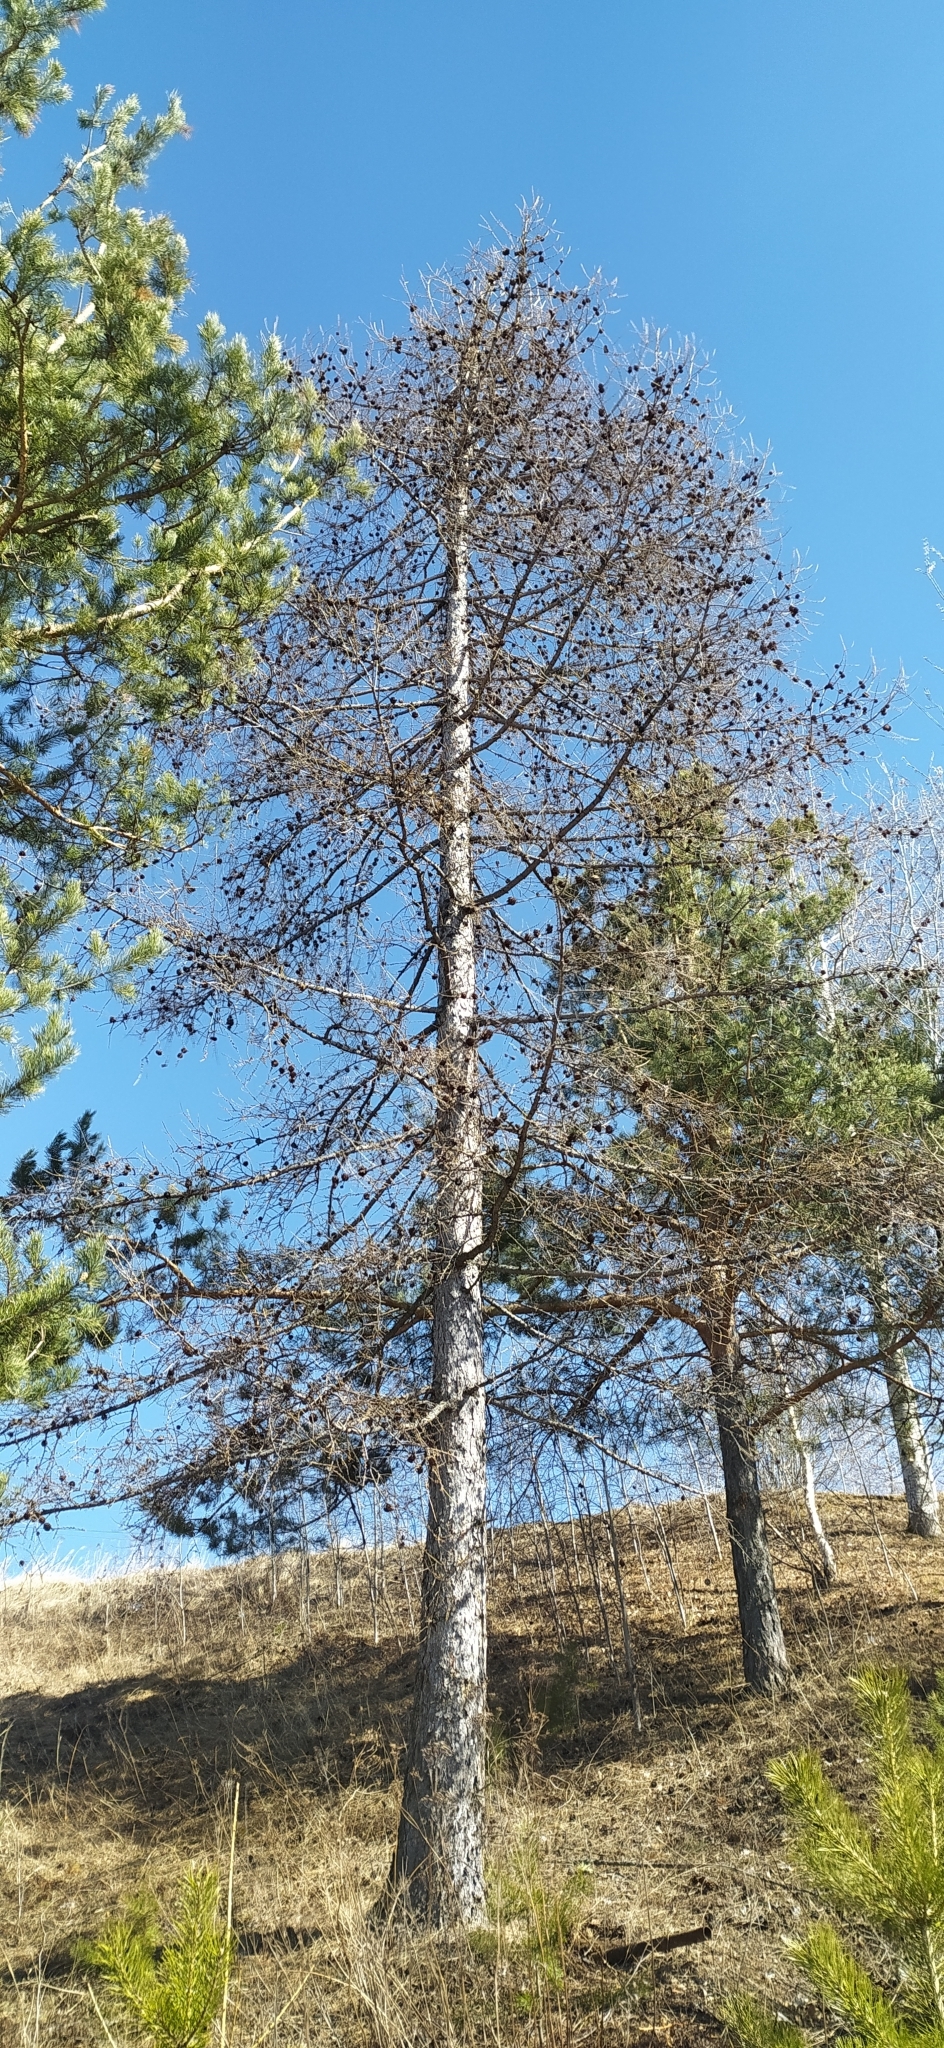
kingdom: Plantae
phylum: Tracheophyta
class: Pinopsida
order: Pinales
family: Pinaceae
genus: Larix
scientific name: Larix sibirica
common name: Siberian larch
